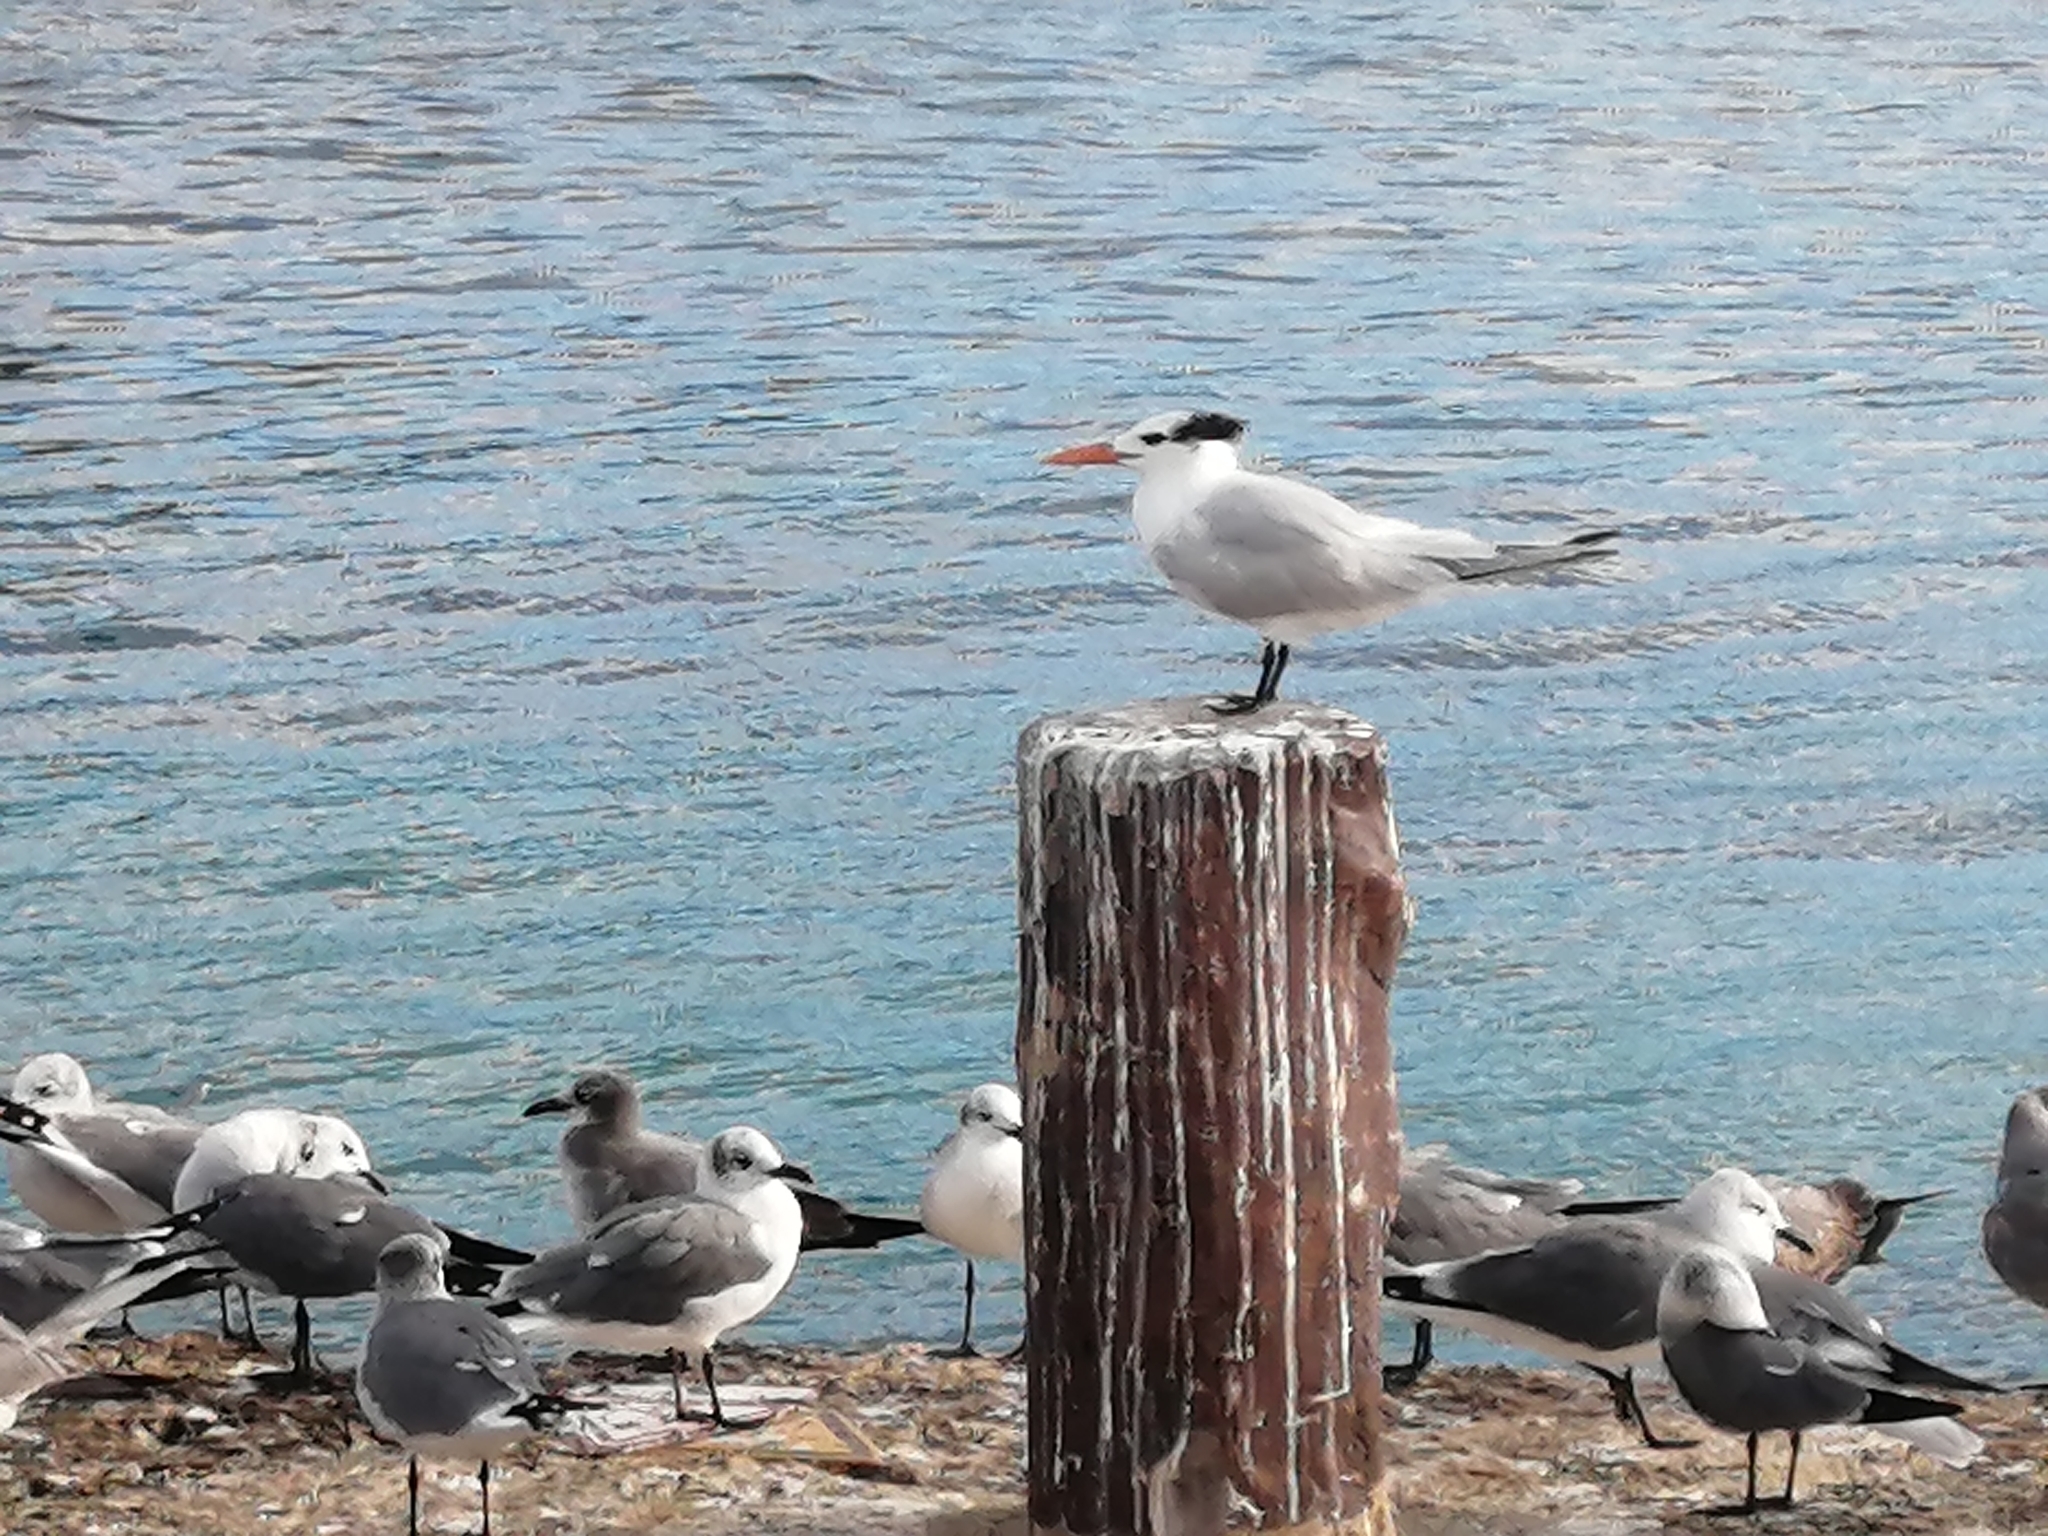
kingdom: Animalia
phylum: Chordata
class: Aves
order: Charadriiformes
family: Laridae
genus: Thalasseus
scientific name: Thalasseus maximus
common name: Royal tern
